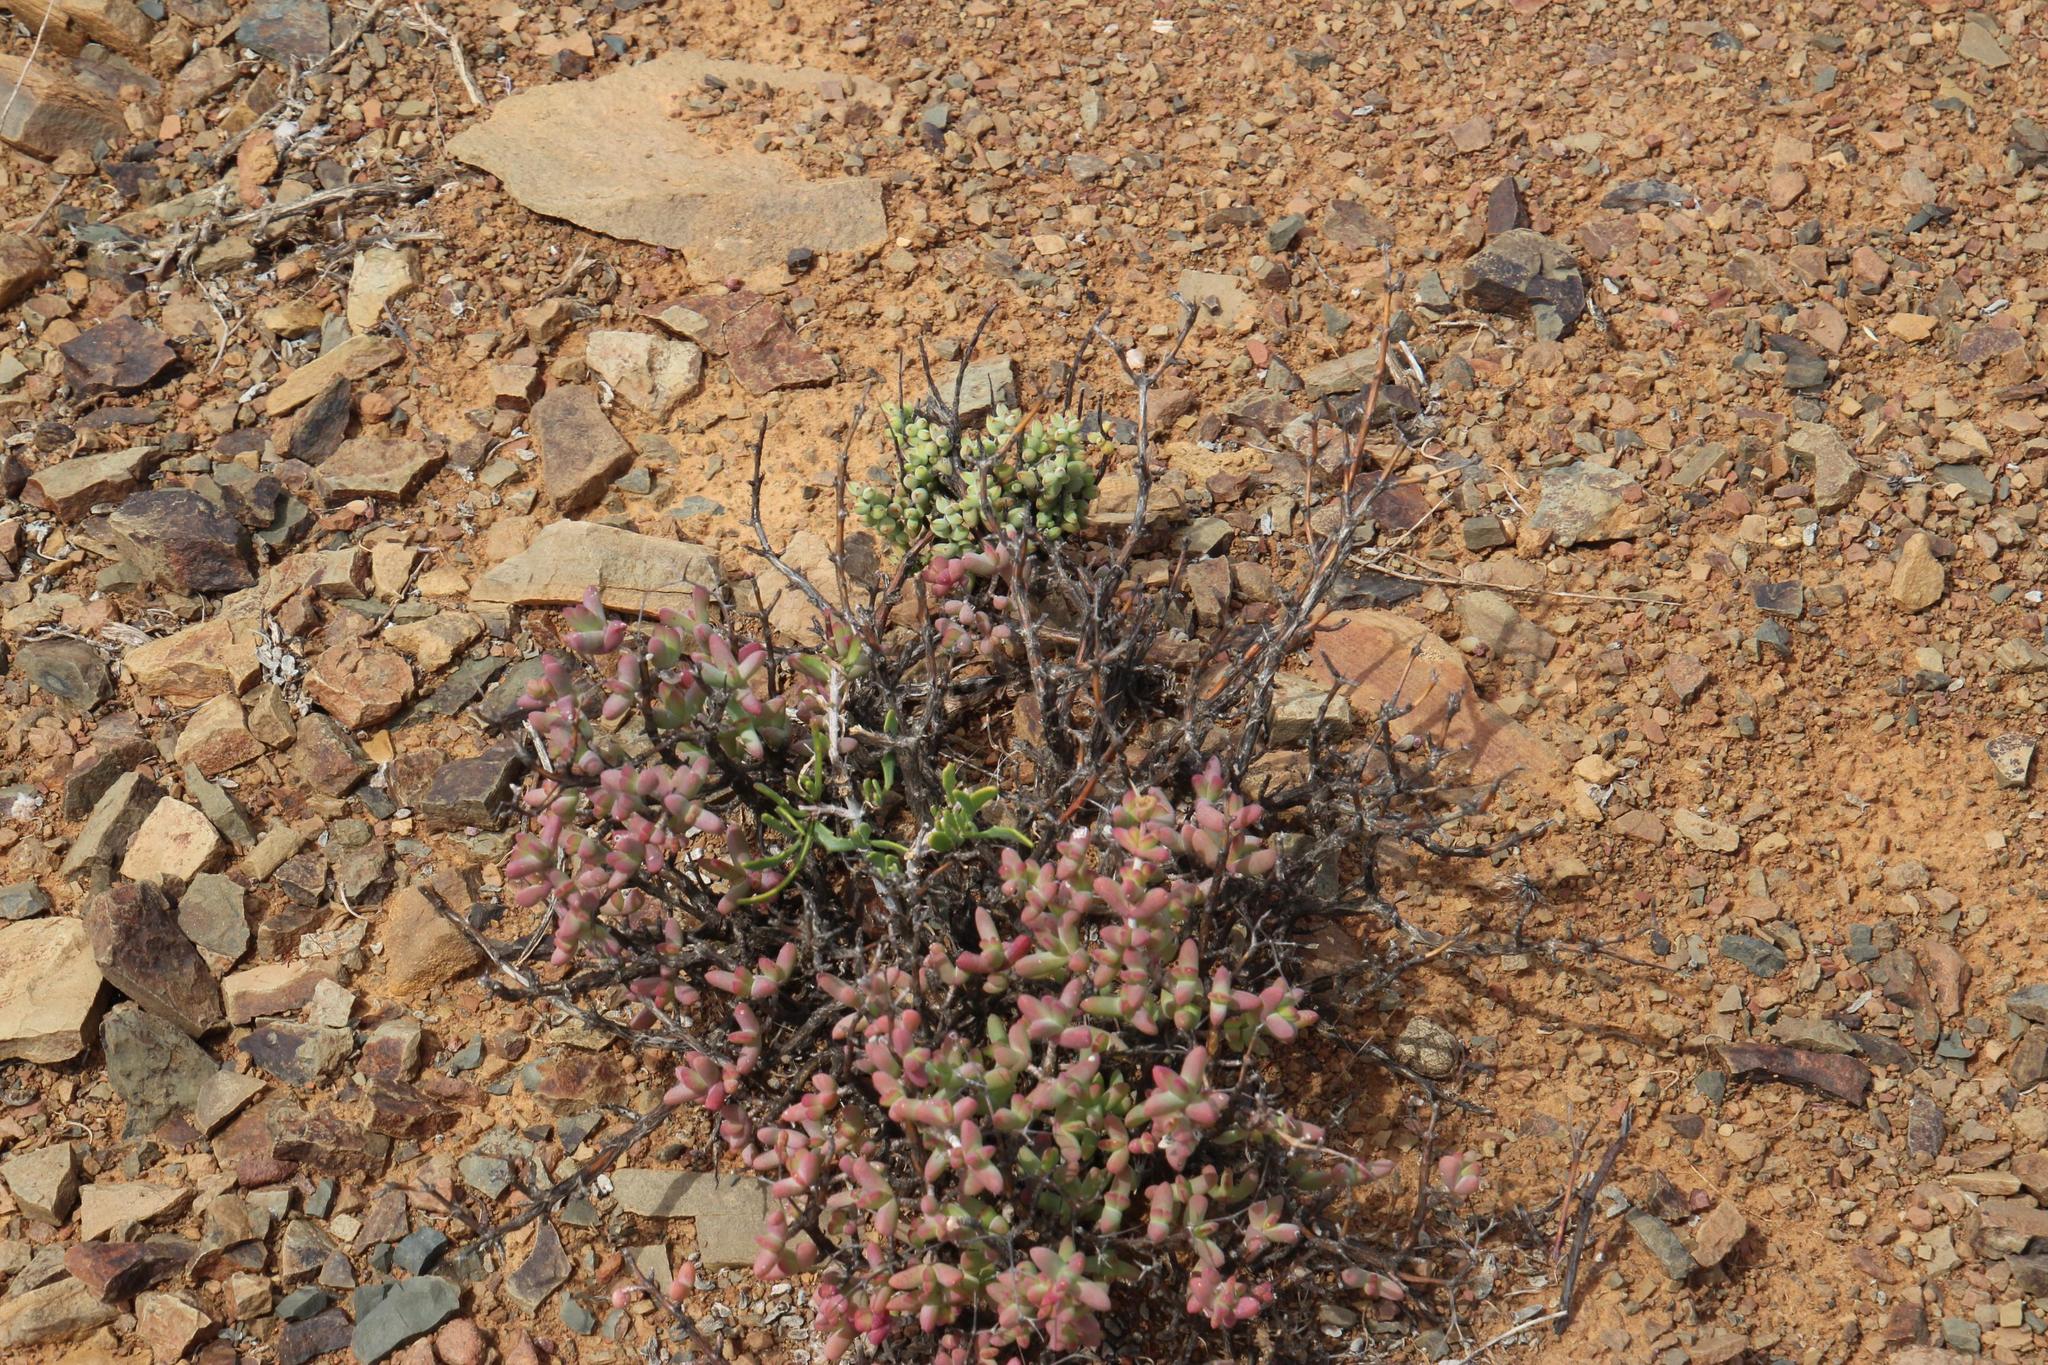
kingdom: Plantae
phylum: Tracheophyta
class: Magnoliopsida
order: Saxifragales
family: Crassulaceae
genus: Crassula
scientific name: Crassula subaphylla
